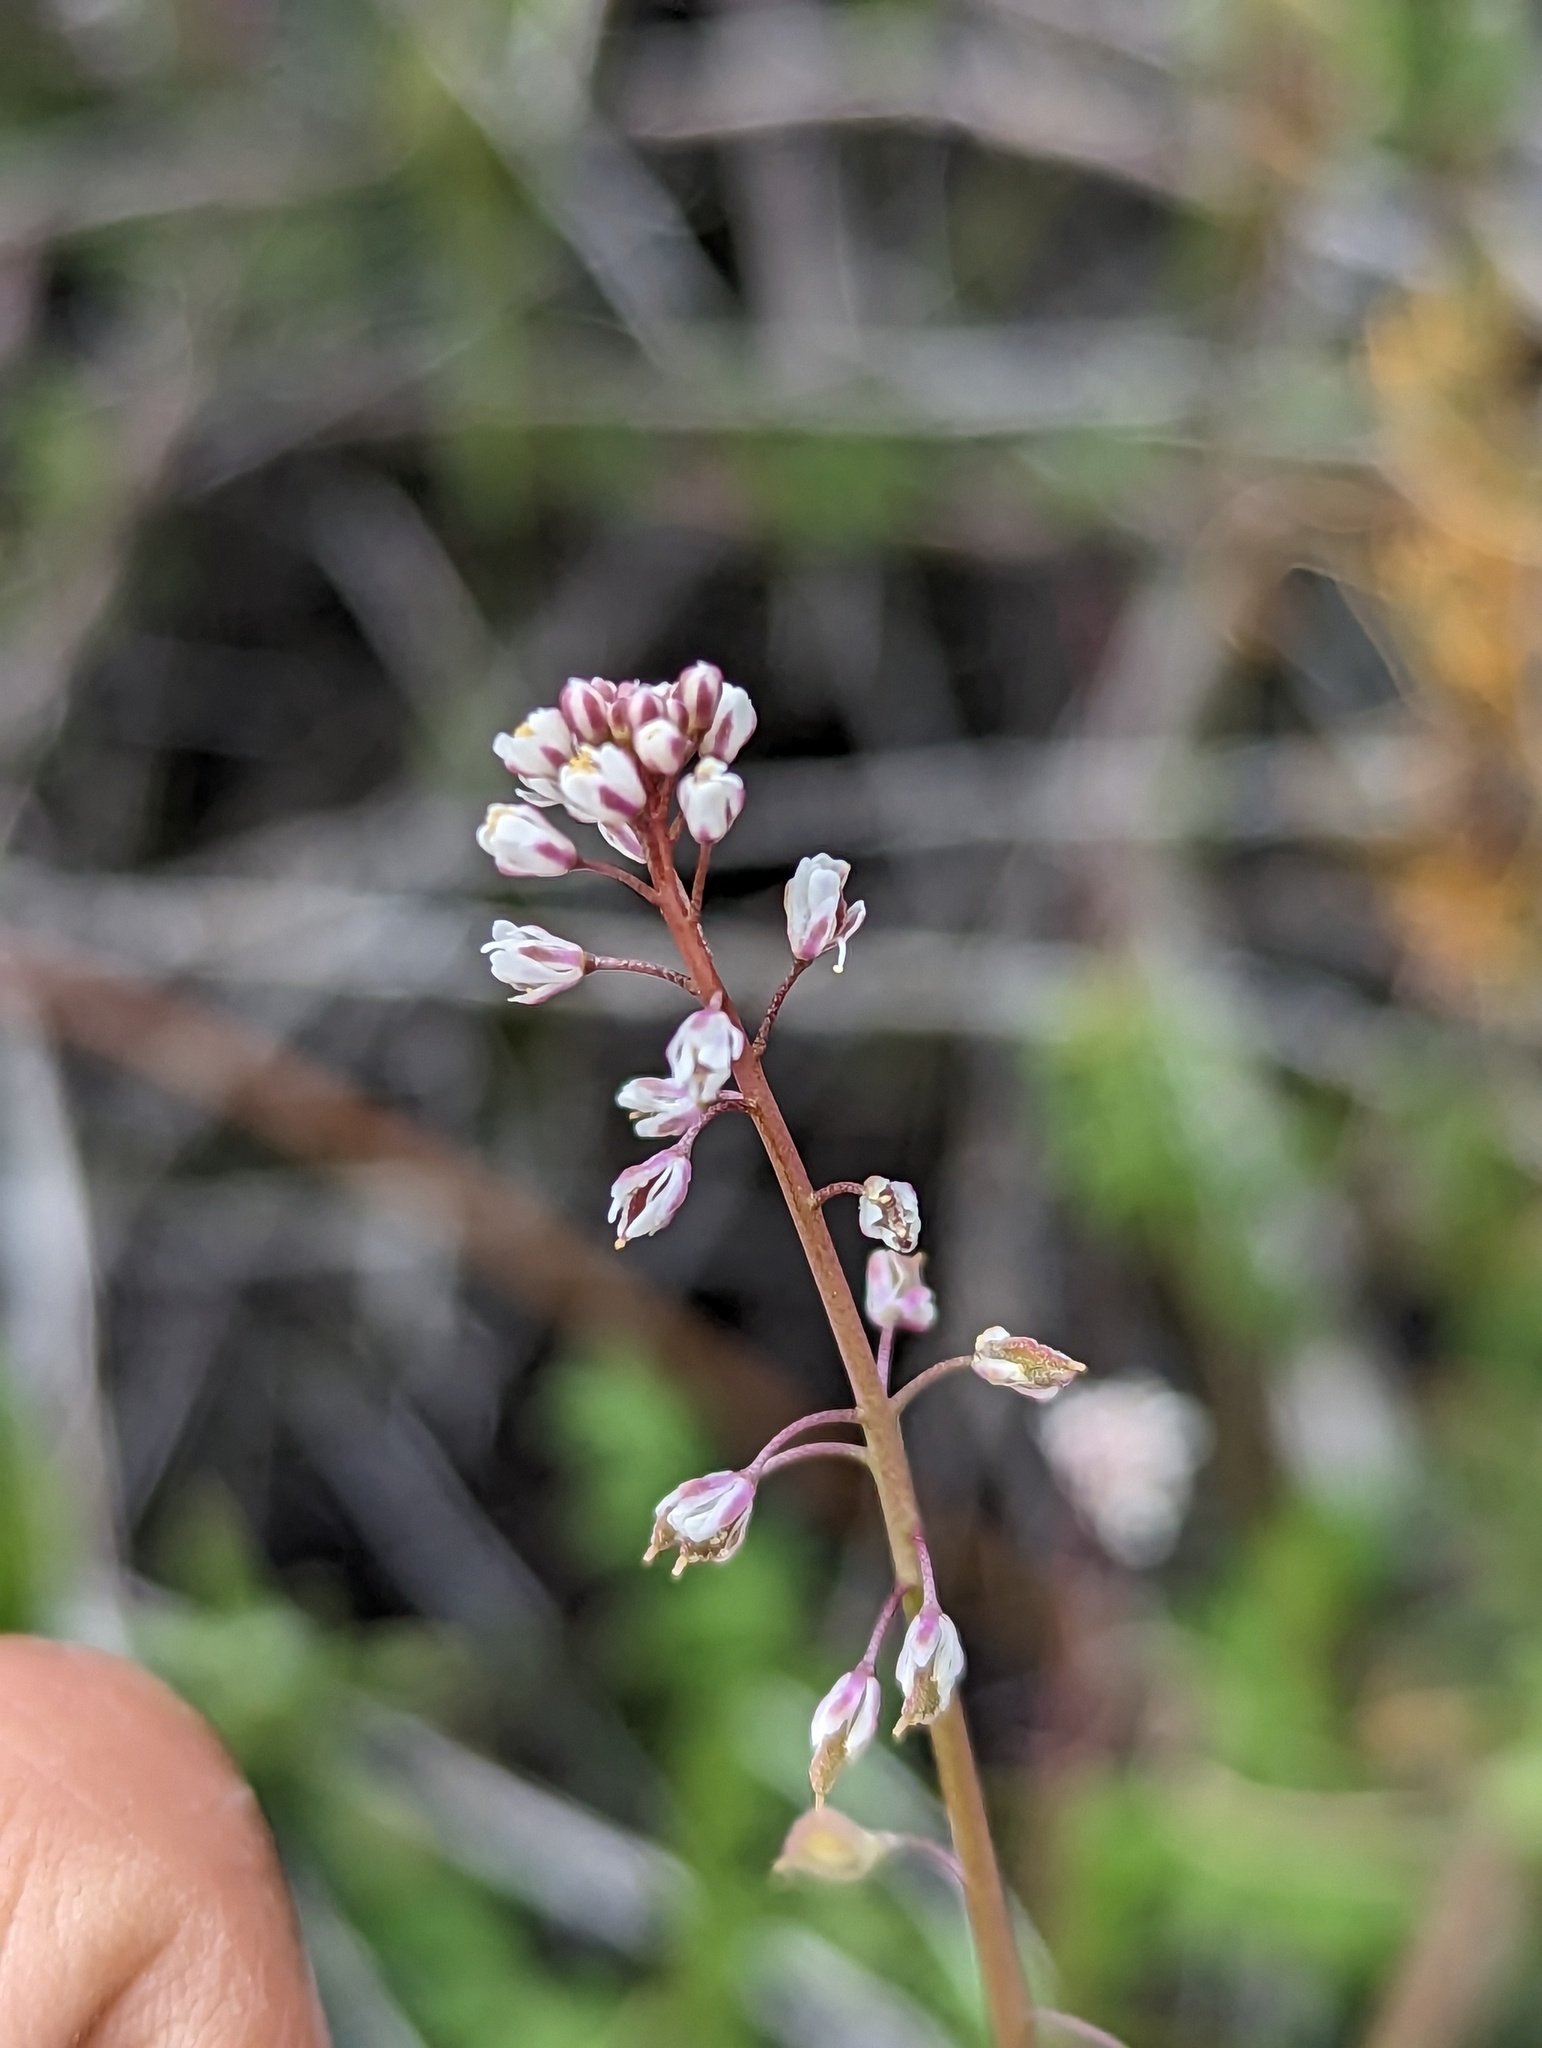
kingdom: Plantae
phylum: Tracheophyta
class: Magnoliopsida
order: Brassicales
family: Brassicaceae
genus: Thysanocarpus
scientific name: Thysanocarpus desertorum
